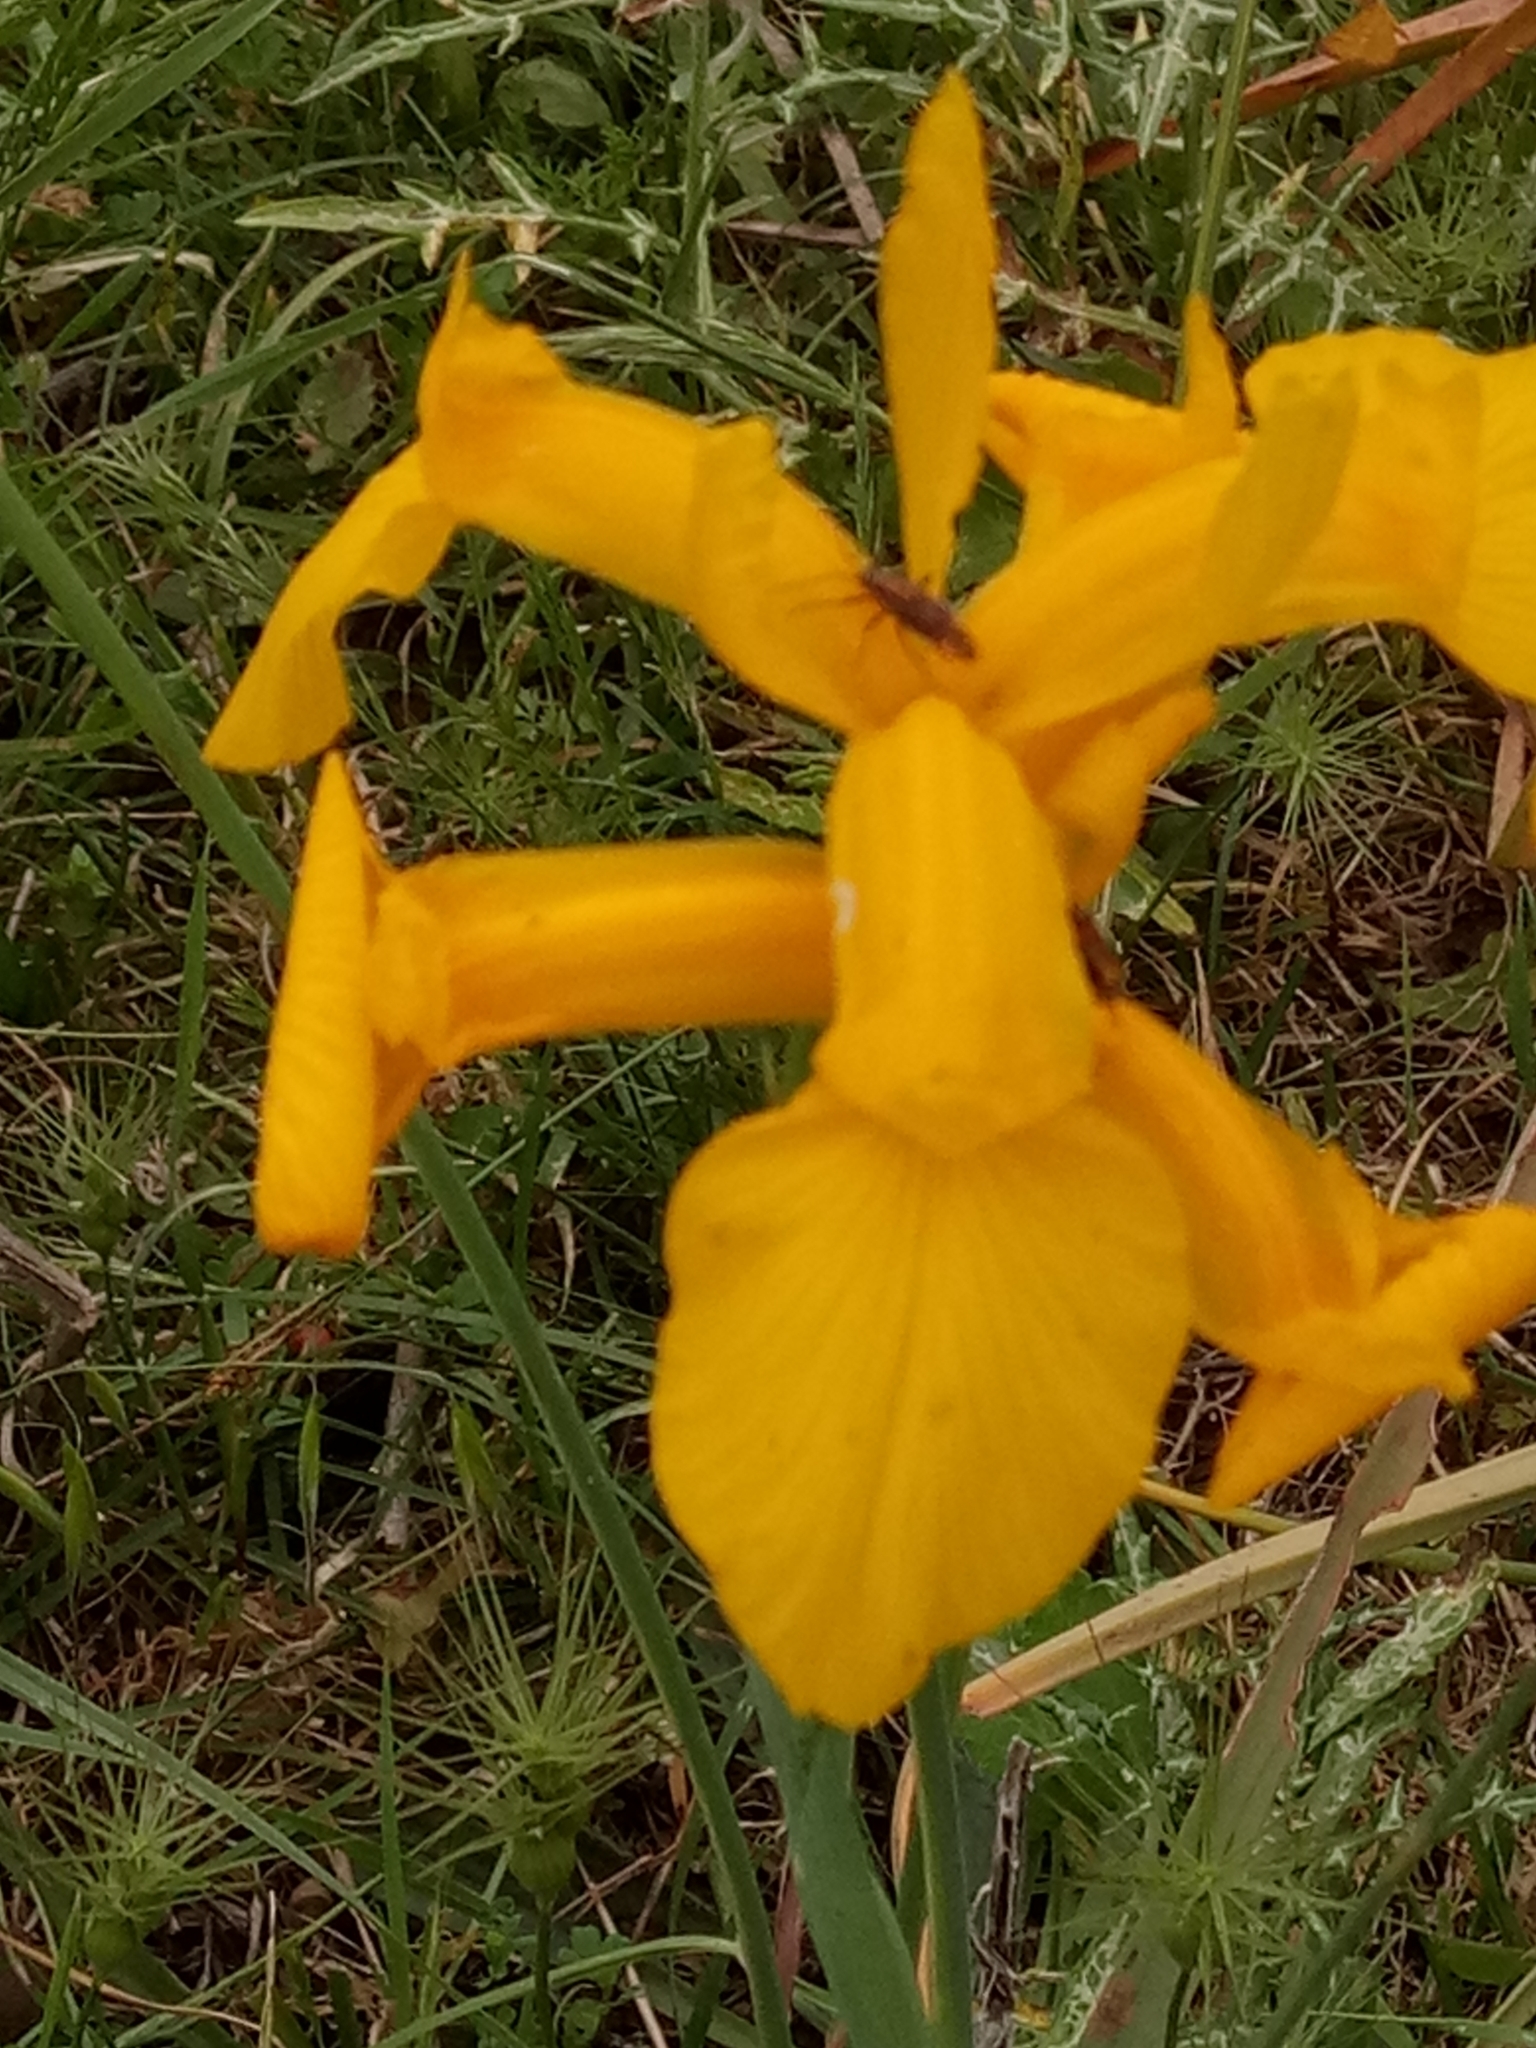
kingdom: Plantae
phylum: Tracheophyta
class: Liliopsida
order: Asparagales
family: Iridaceae
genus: Iris
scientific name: Iris juncea
